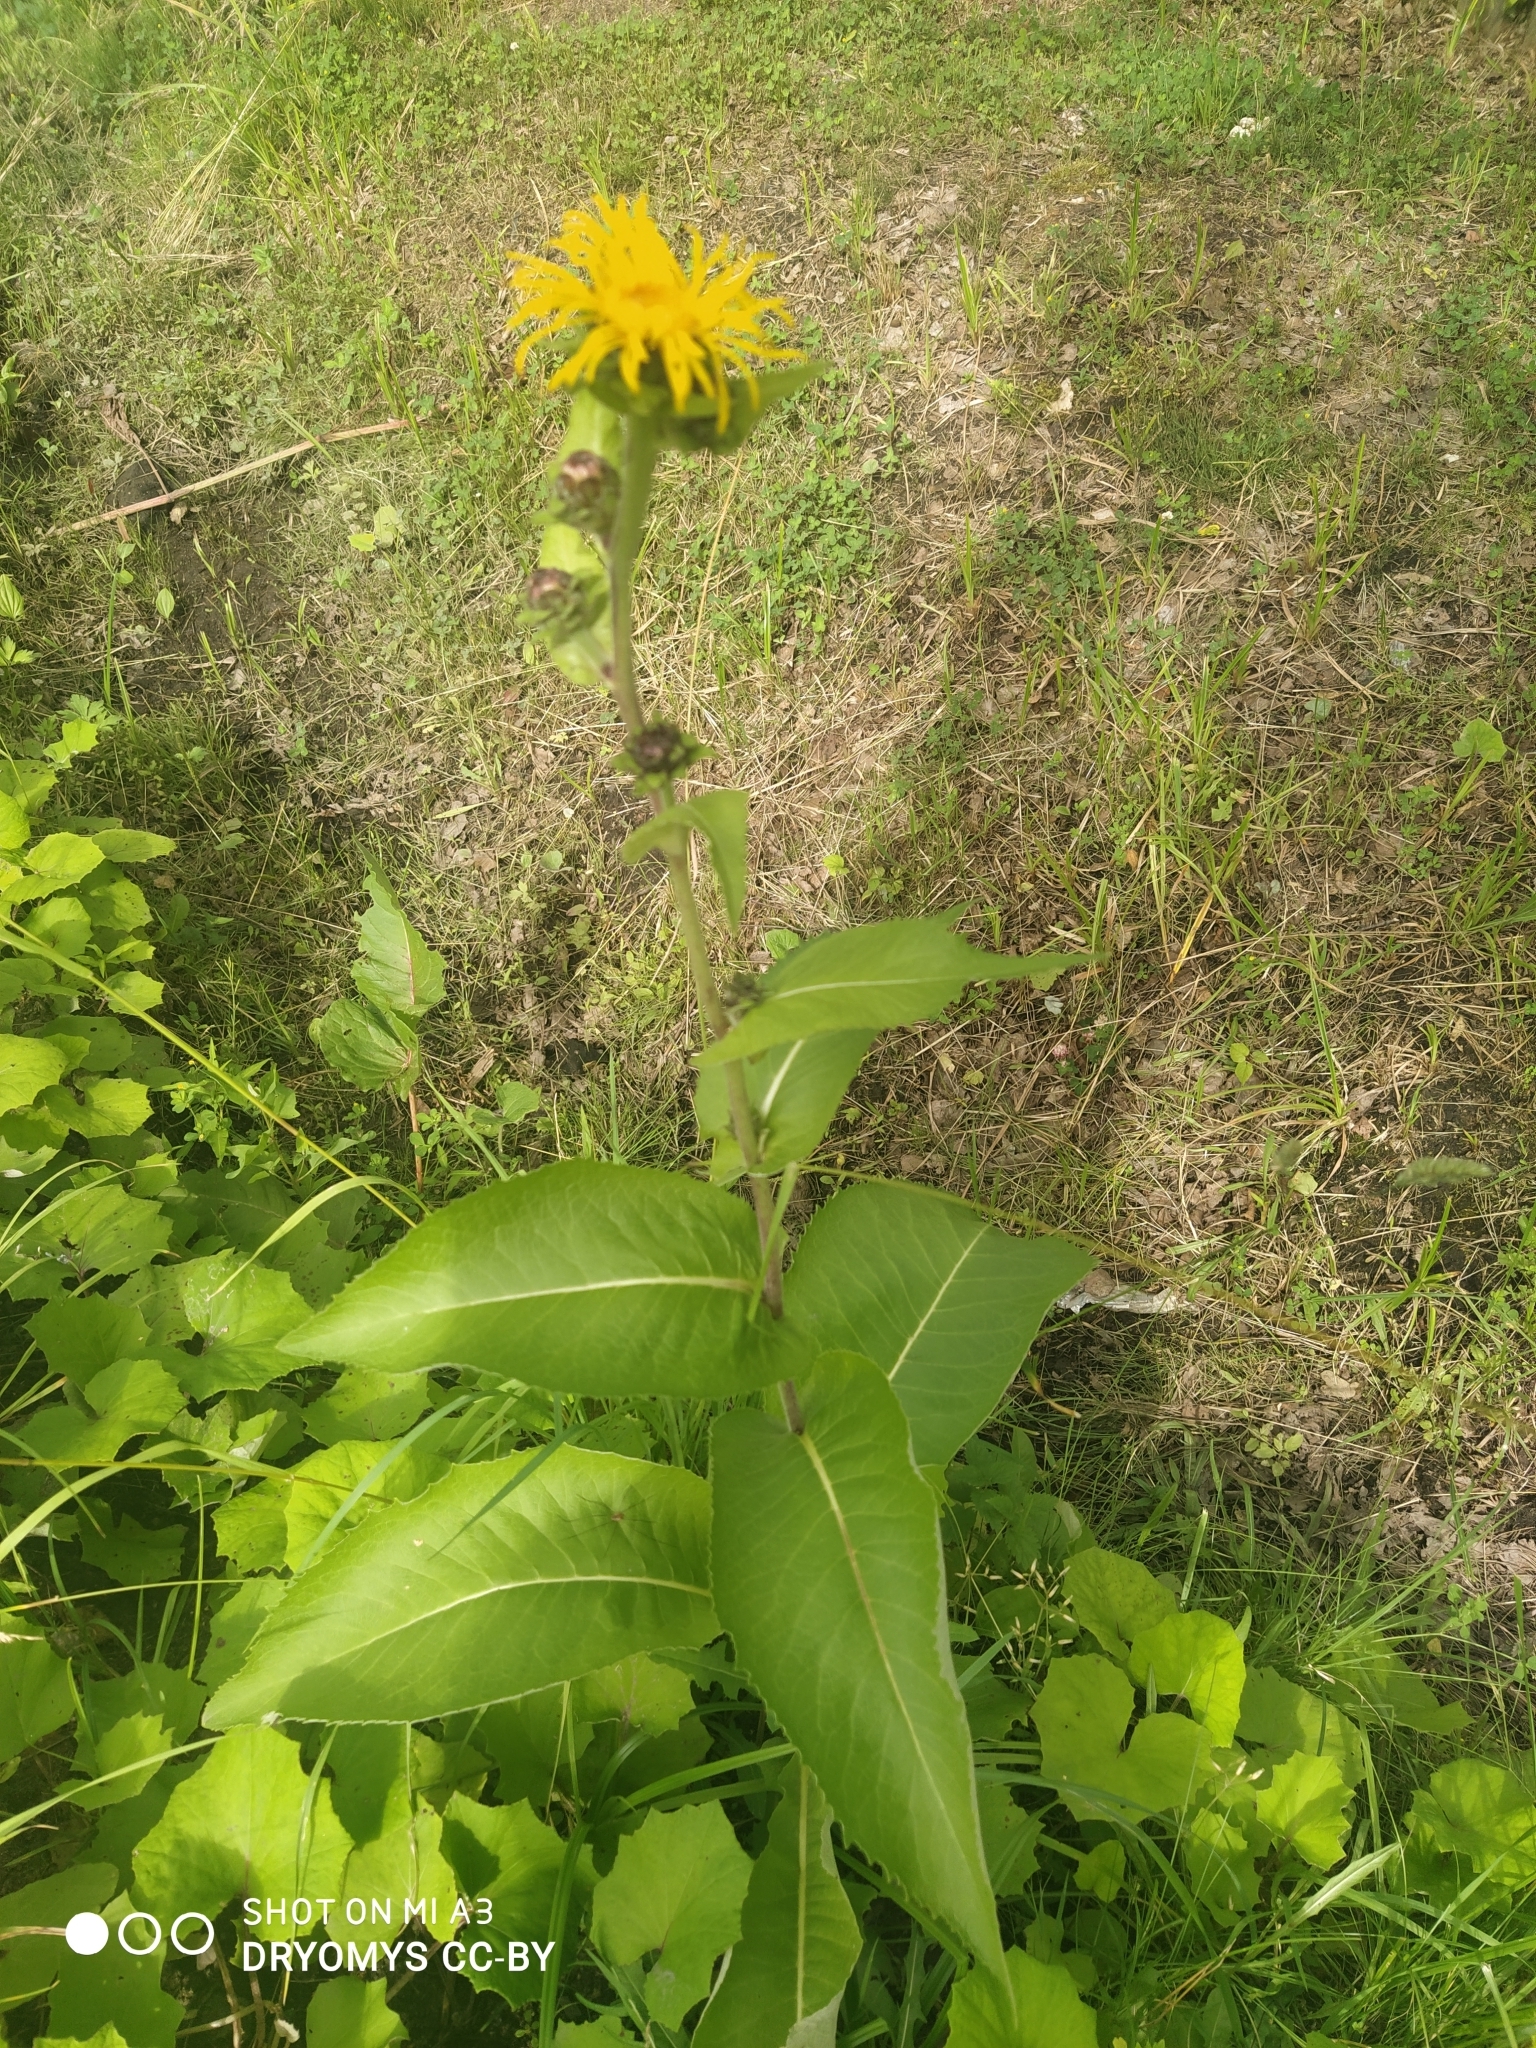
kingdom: Plantae
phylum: Tracheophyta
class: Magnoliopsida
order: Asterales
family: Asteraceae
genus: Inula
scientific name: Inula helenium
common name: Elecampane
